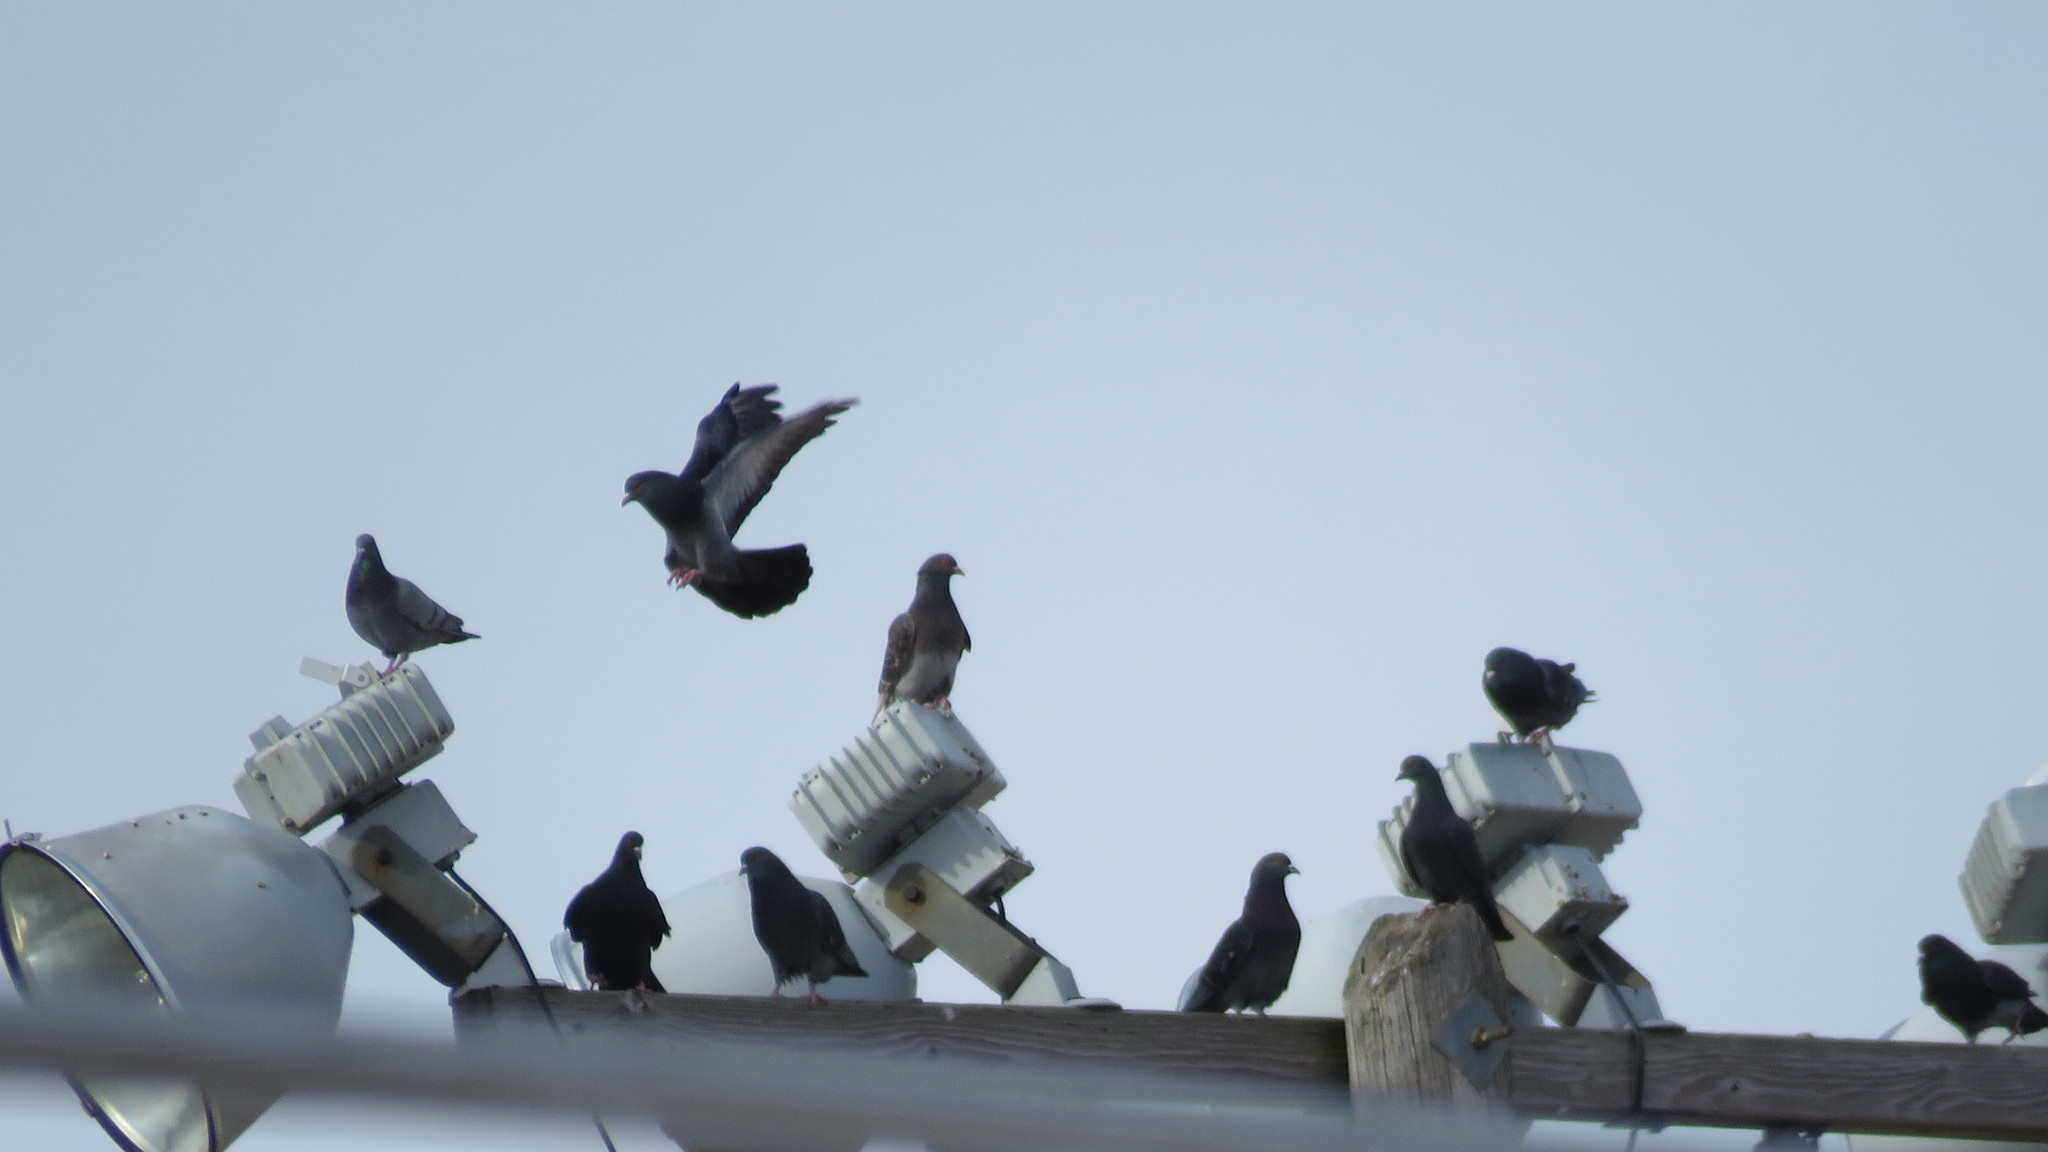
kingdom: Animalia
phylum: Chordata
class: Aves
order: Columbiformes
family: Columbidae
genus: Columba
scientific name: Columba livia
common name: Rock pigeon
